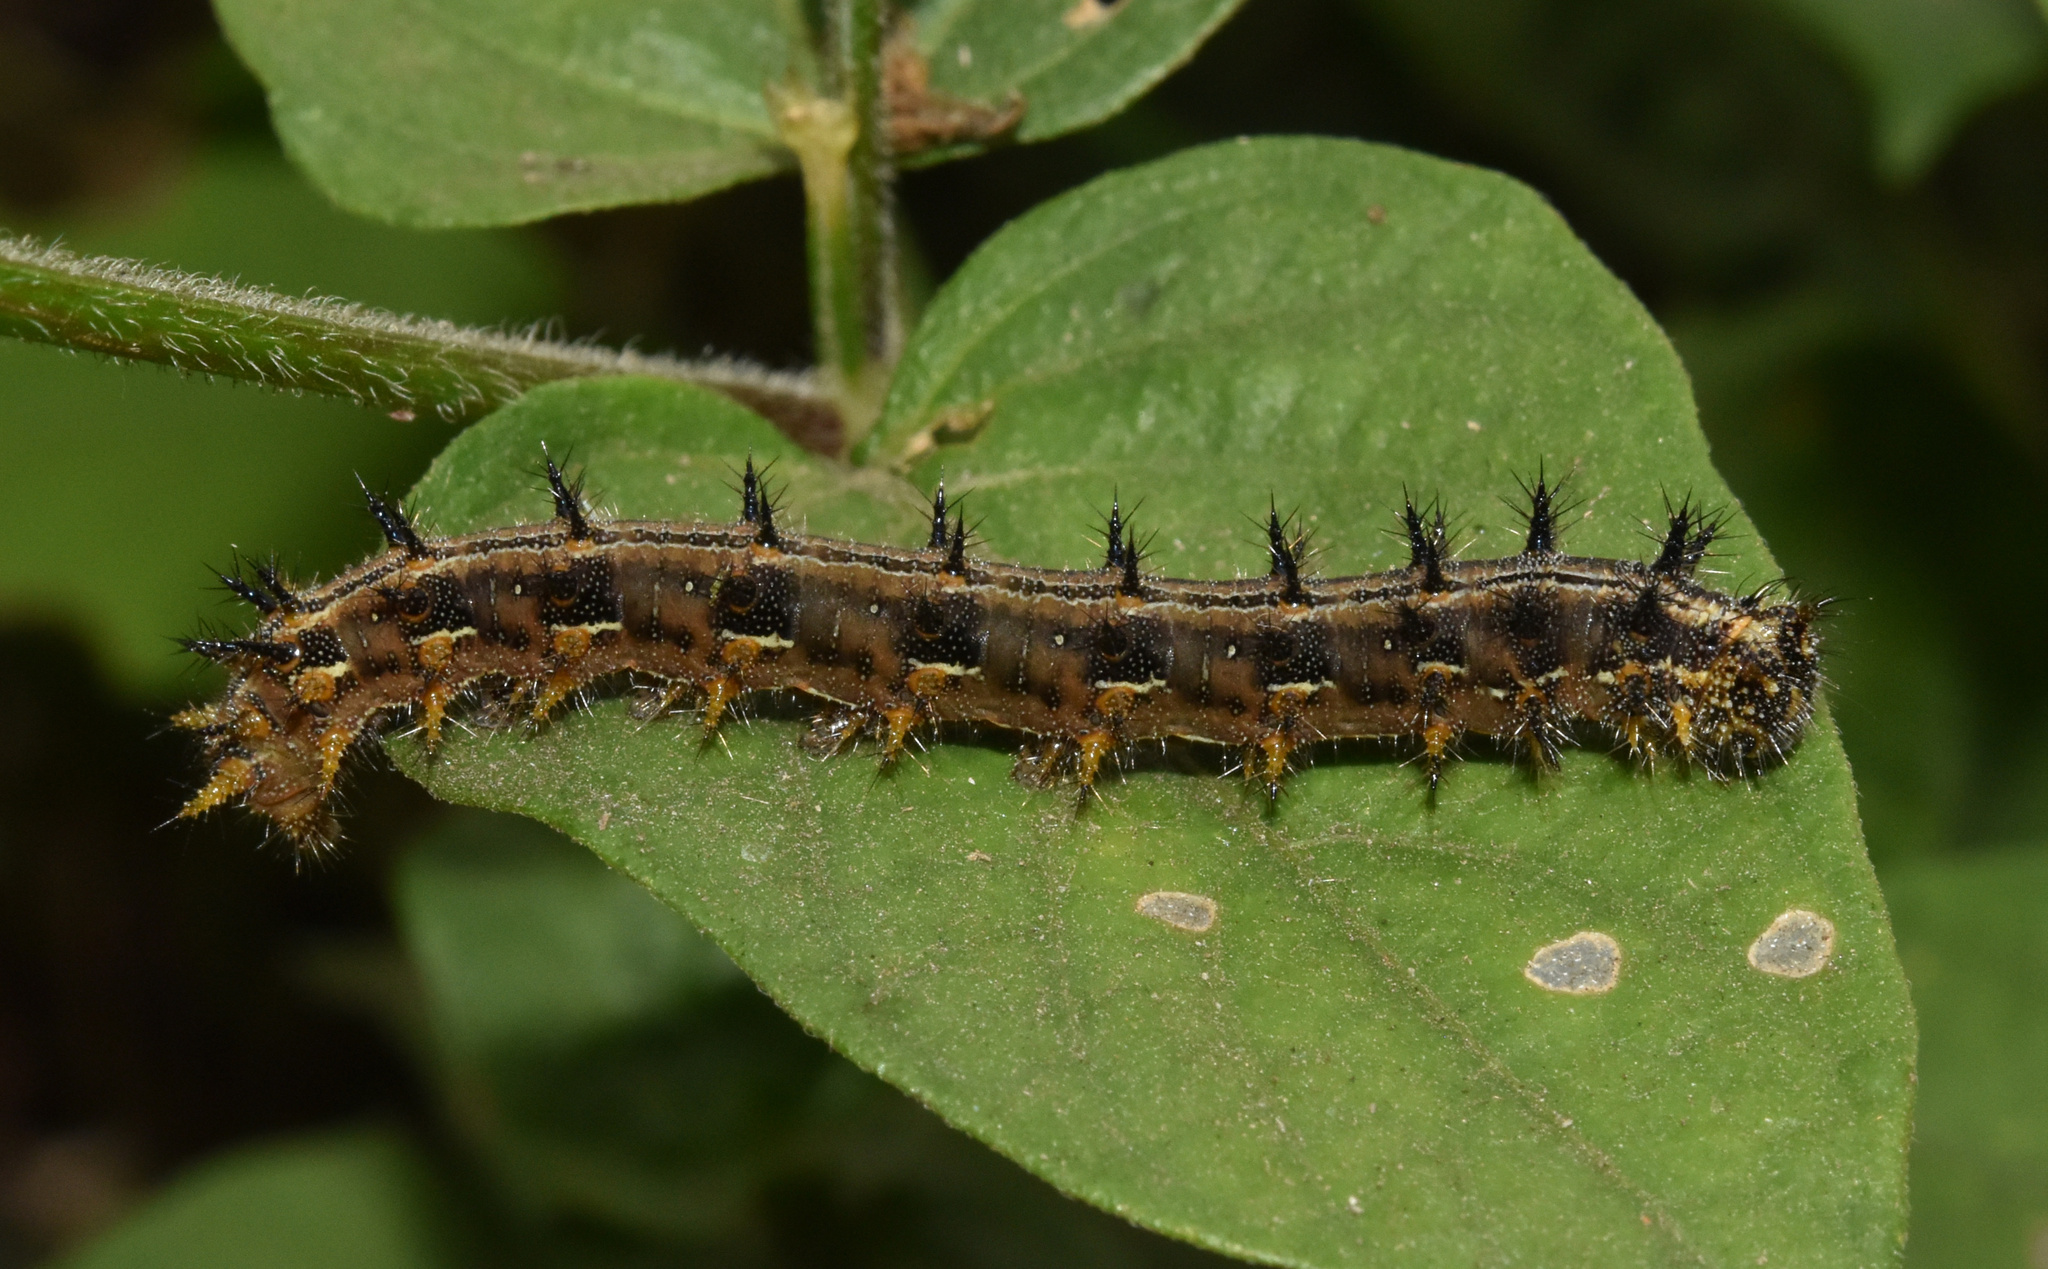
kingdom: Animalia
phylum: Arthropoda
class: Insecta
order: Lepidoptera
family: Nymphalidae
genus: Junonia
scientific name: Junonia oenone
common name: Dark blue pansy
